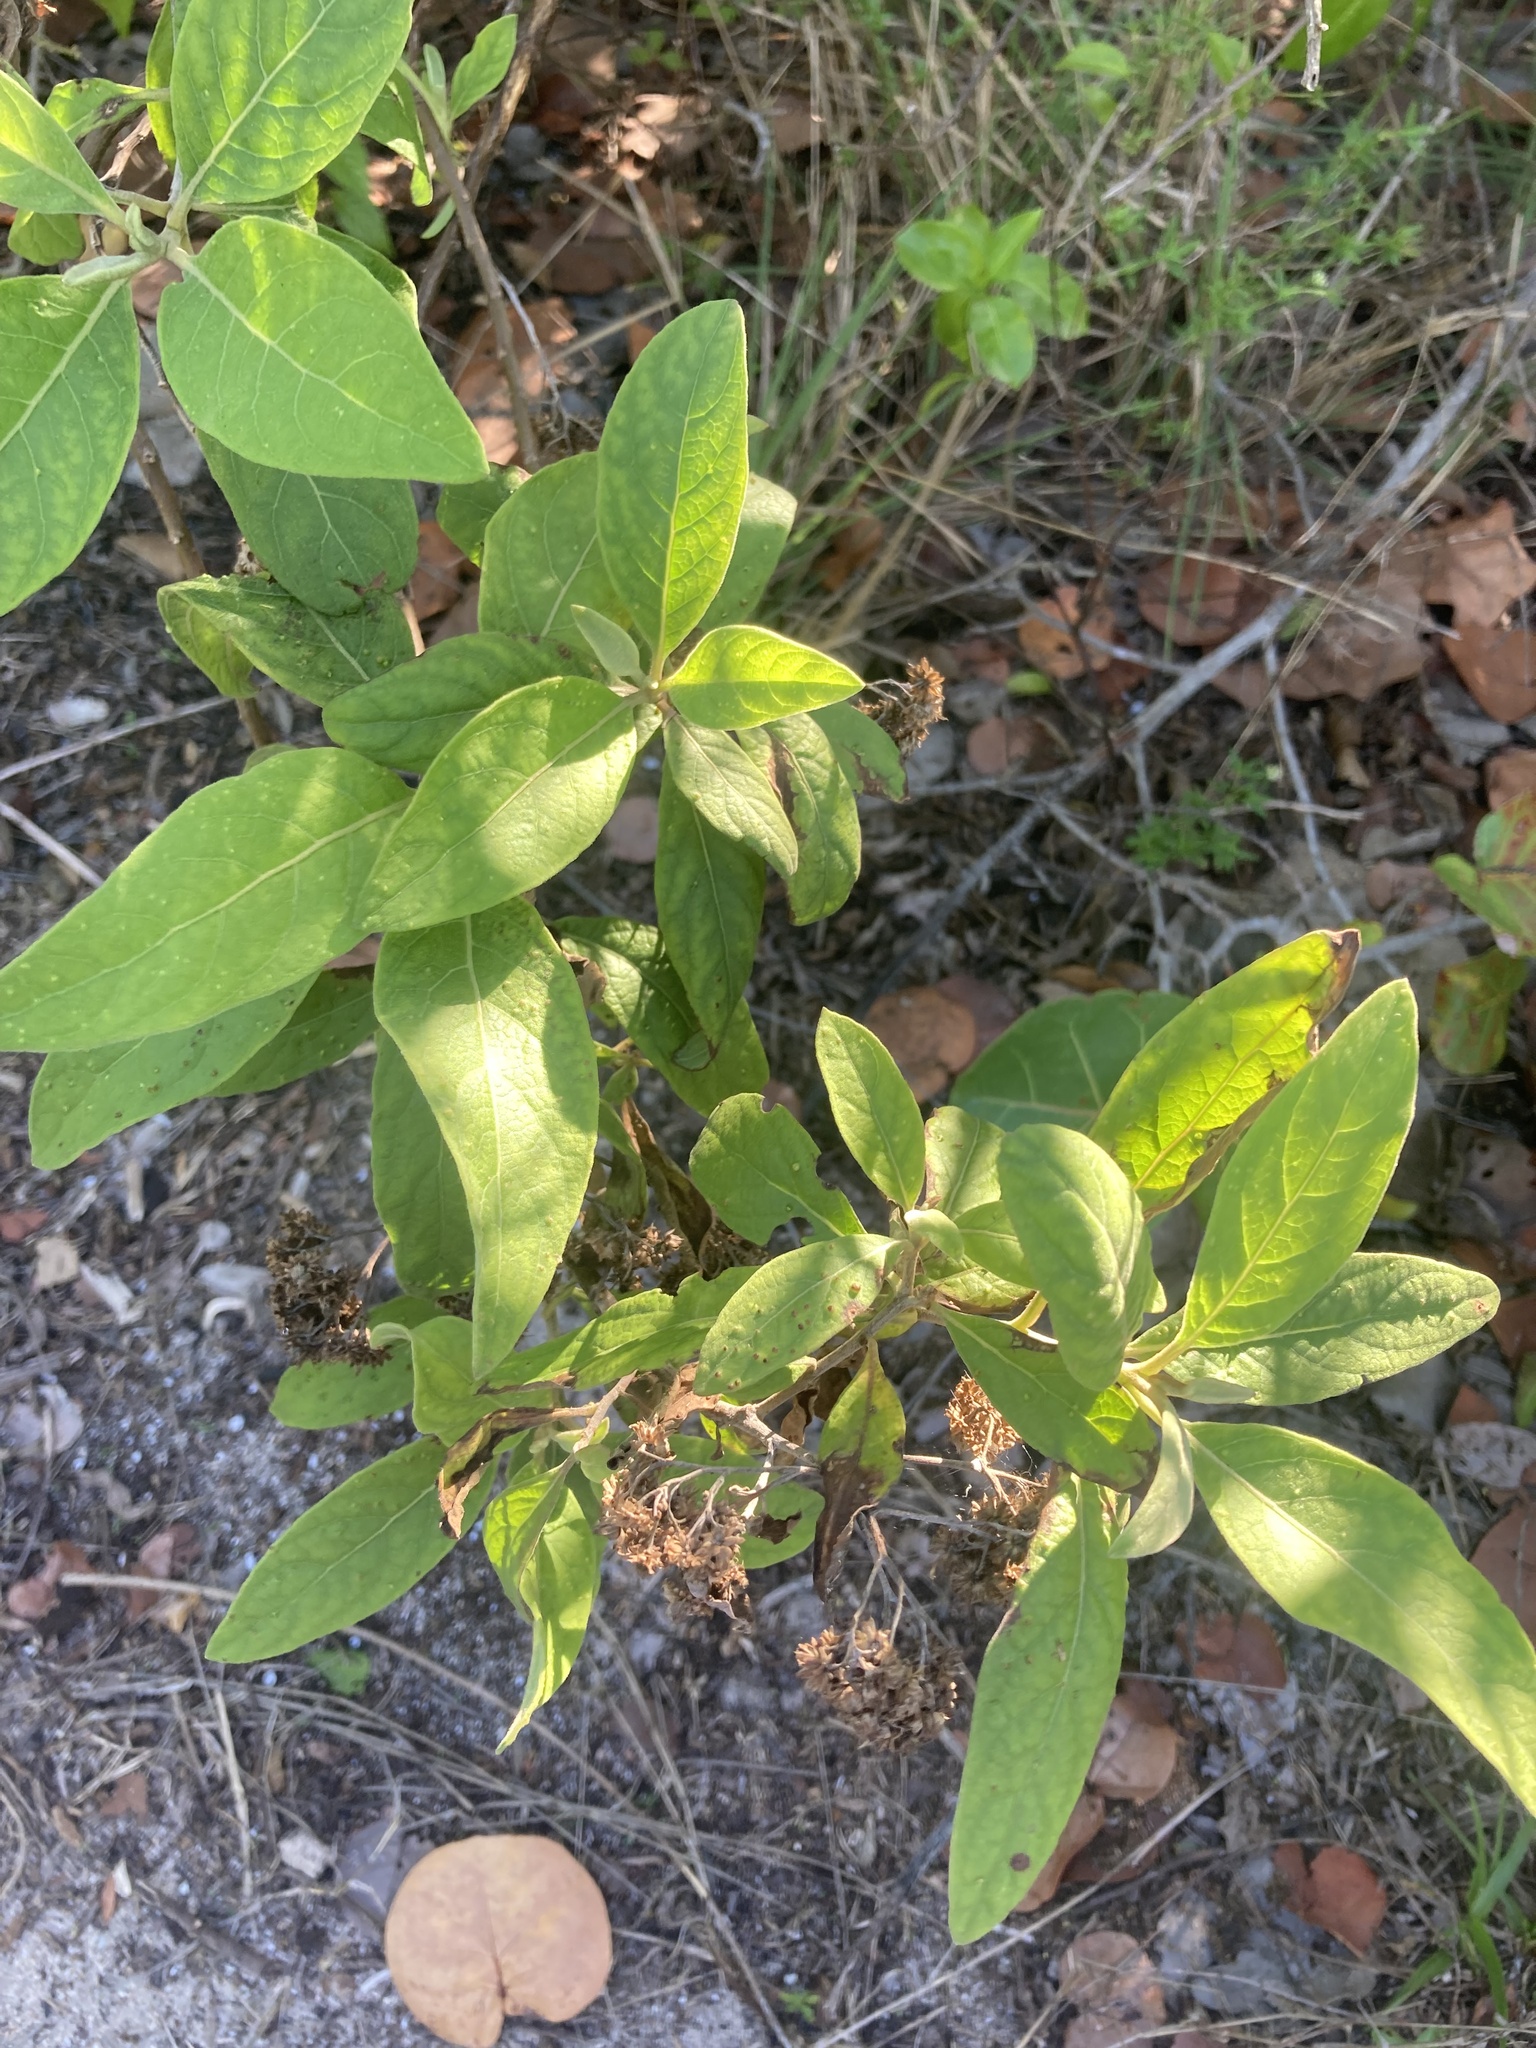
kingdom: Plantae
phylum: Tracheophyta
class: Magnoliopsida
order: Asterales
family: Asteraceae
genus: Pluchea
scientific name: Pluchea carolinensis
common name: Marsh fleabane
